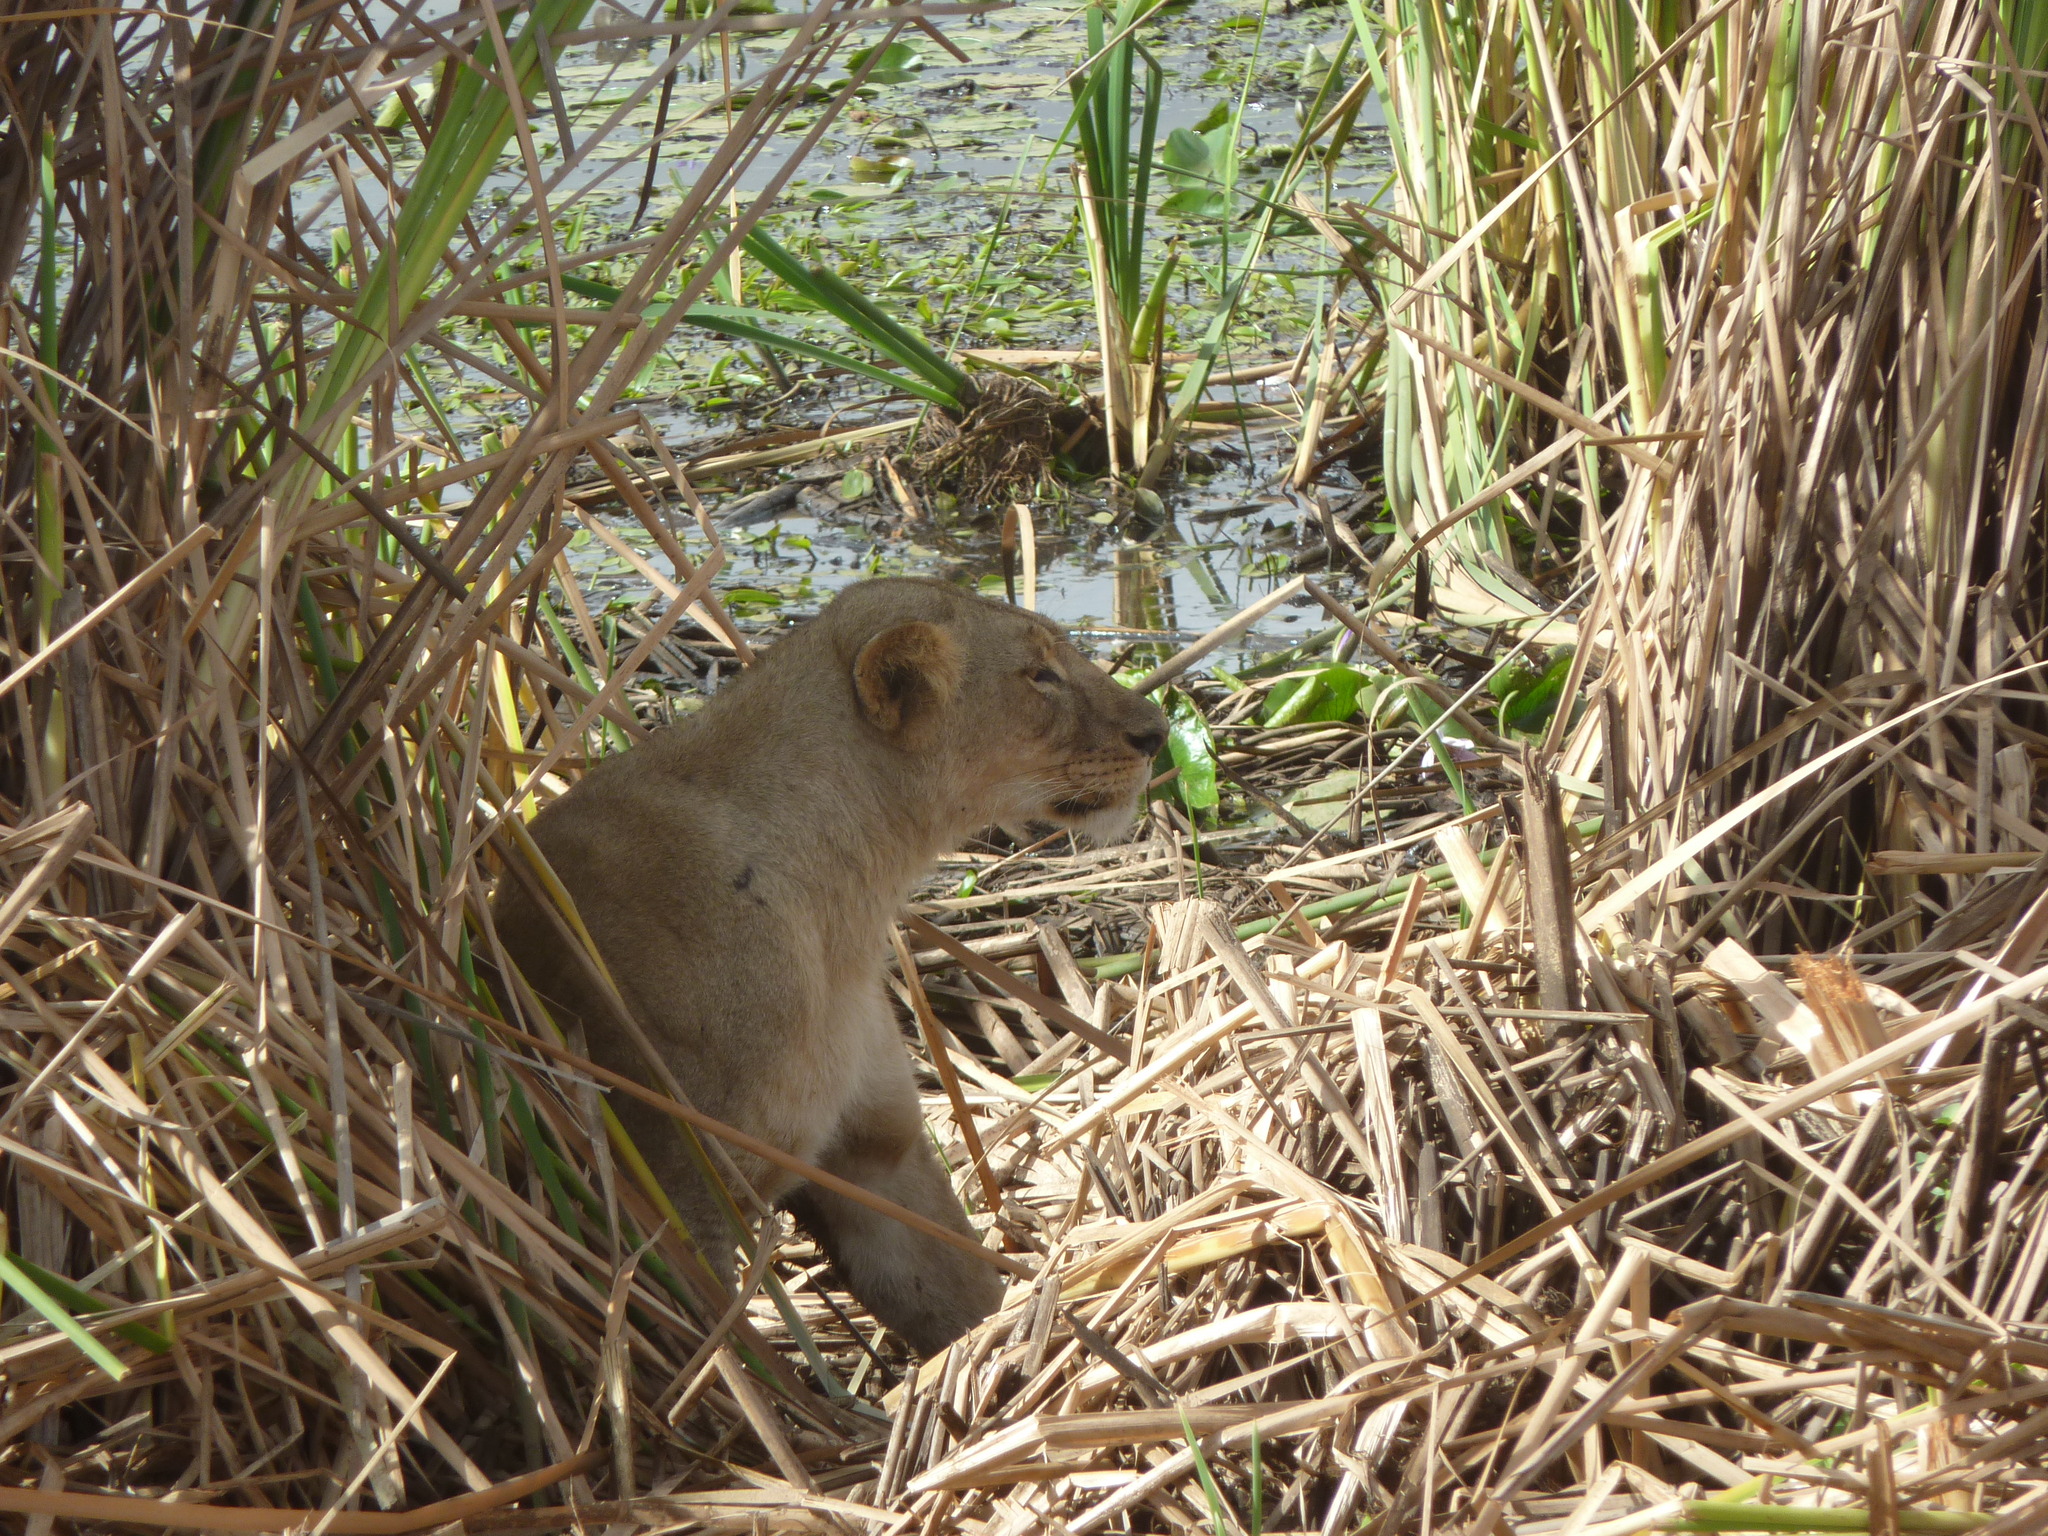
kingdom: Animalia
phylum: Chordata
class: Mammalia
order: Carnivora
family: Felidae
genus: Panthera
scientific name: Panthera leo
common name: Lion
